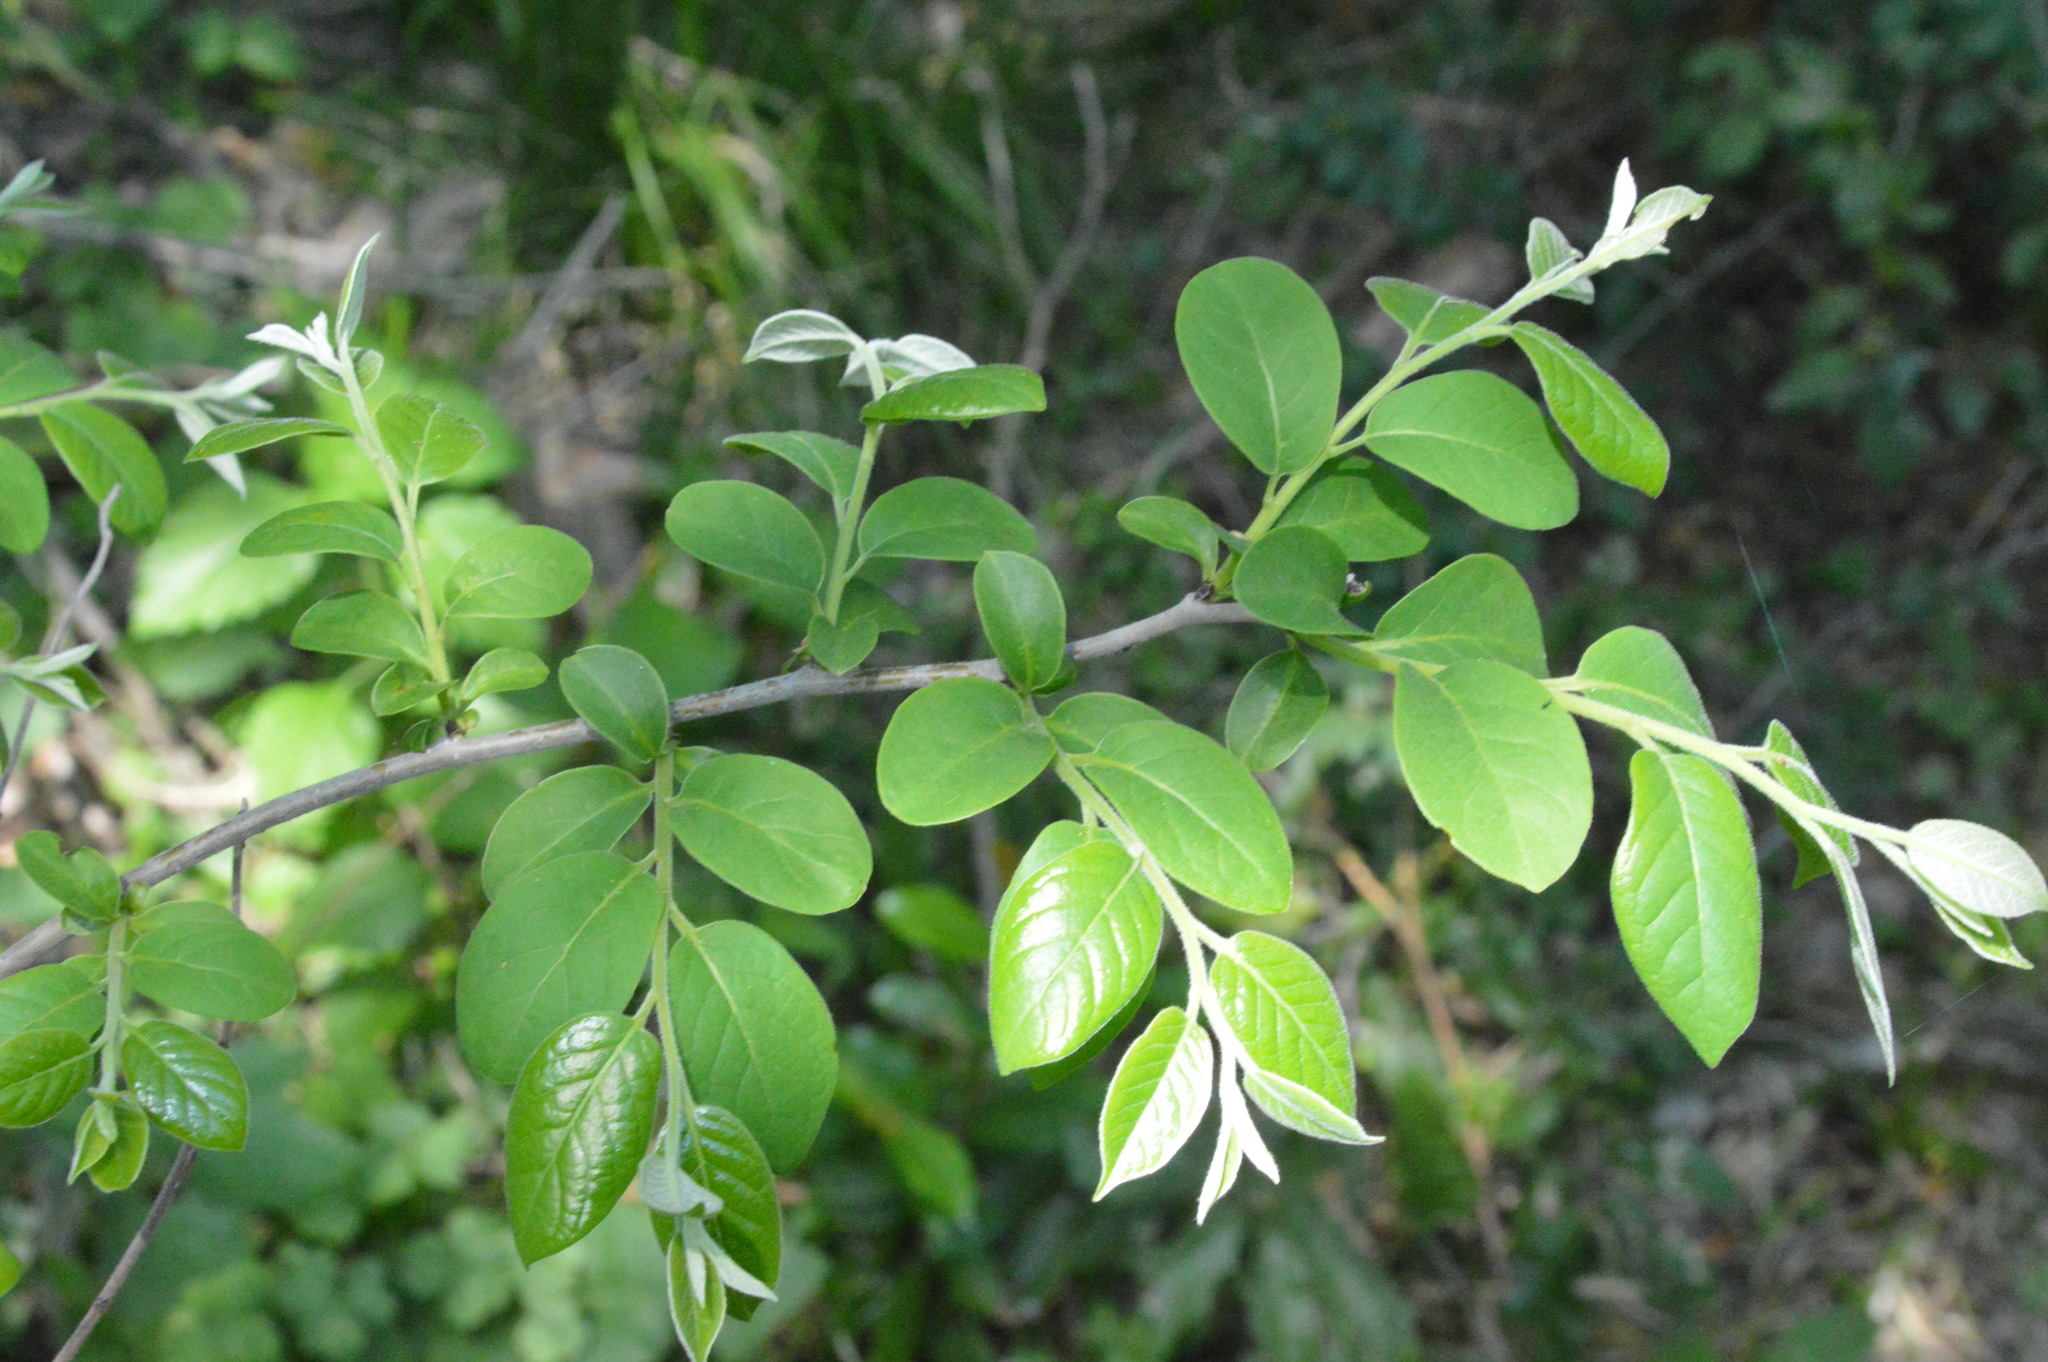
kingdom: Plantae
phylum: Tracheophyta
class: Magnoliopsida
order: Myrtales
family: Lythraceae
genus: Lagerstroemia
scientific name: Lagerstroemia indica
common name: Crape-myrtle
